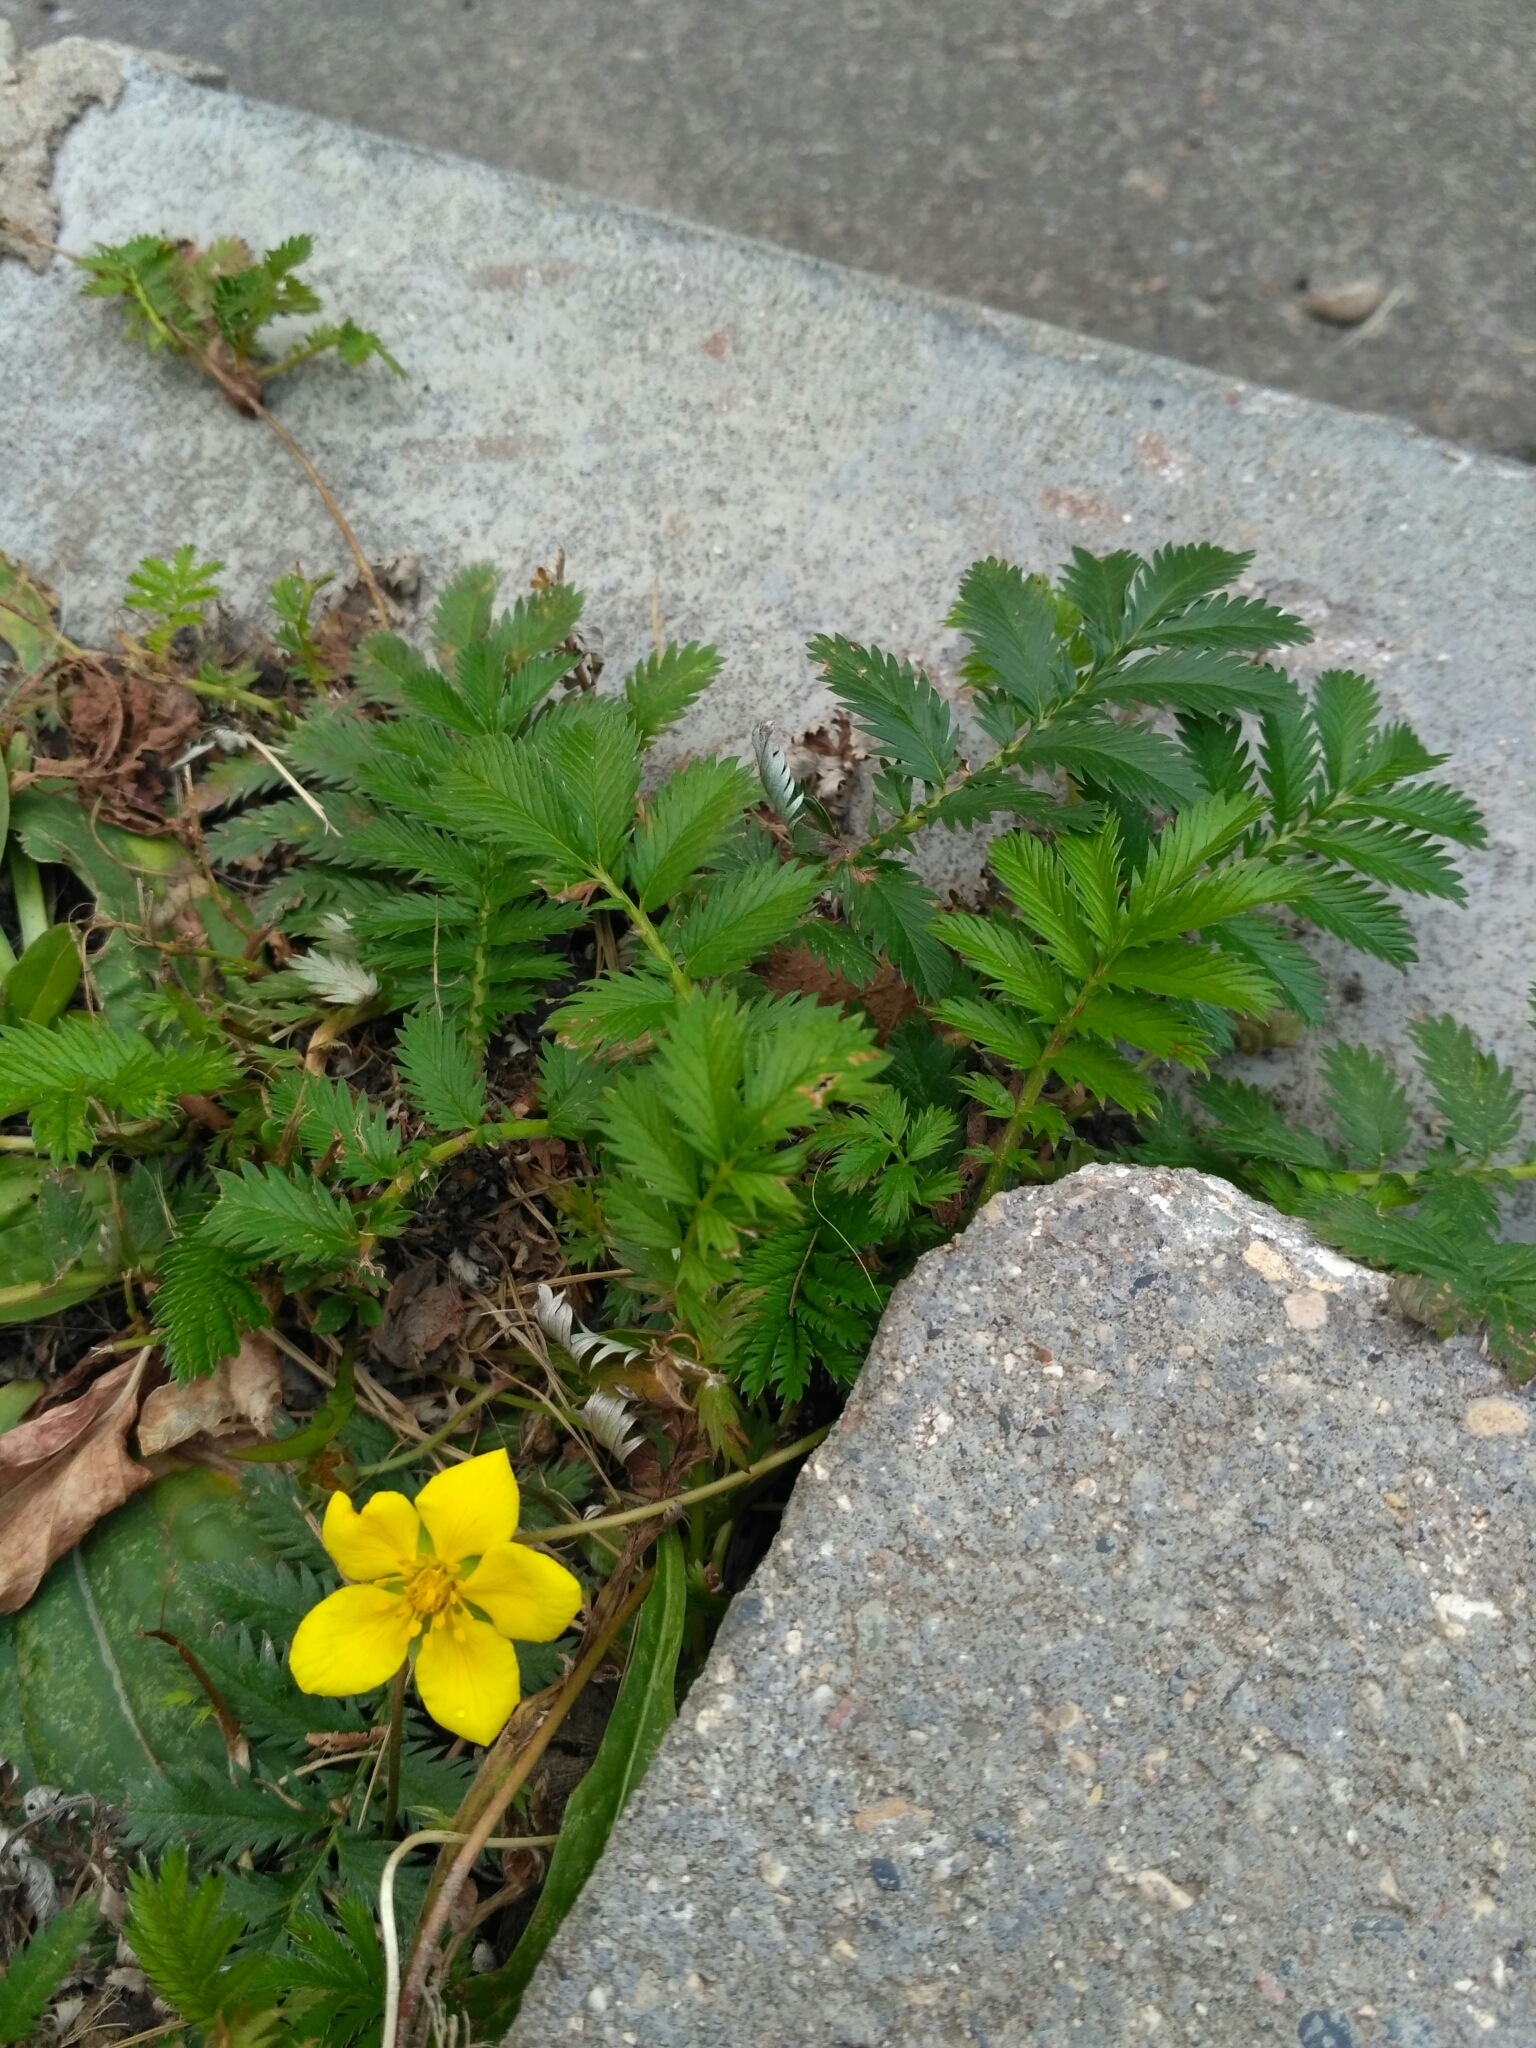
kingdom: Plantae
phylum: Tracheophyta
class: Magnoliopsida
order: Rosales
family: Rosaceae
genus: Argentina
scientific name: Argentina anserina
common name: Common silverweed
